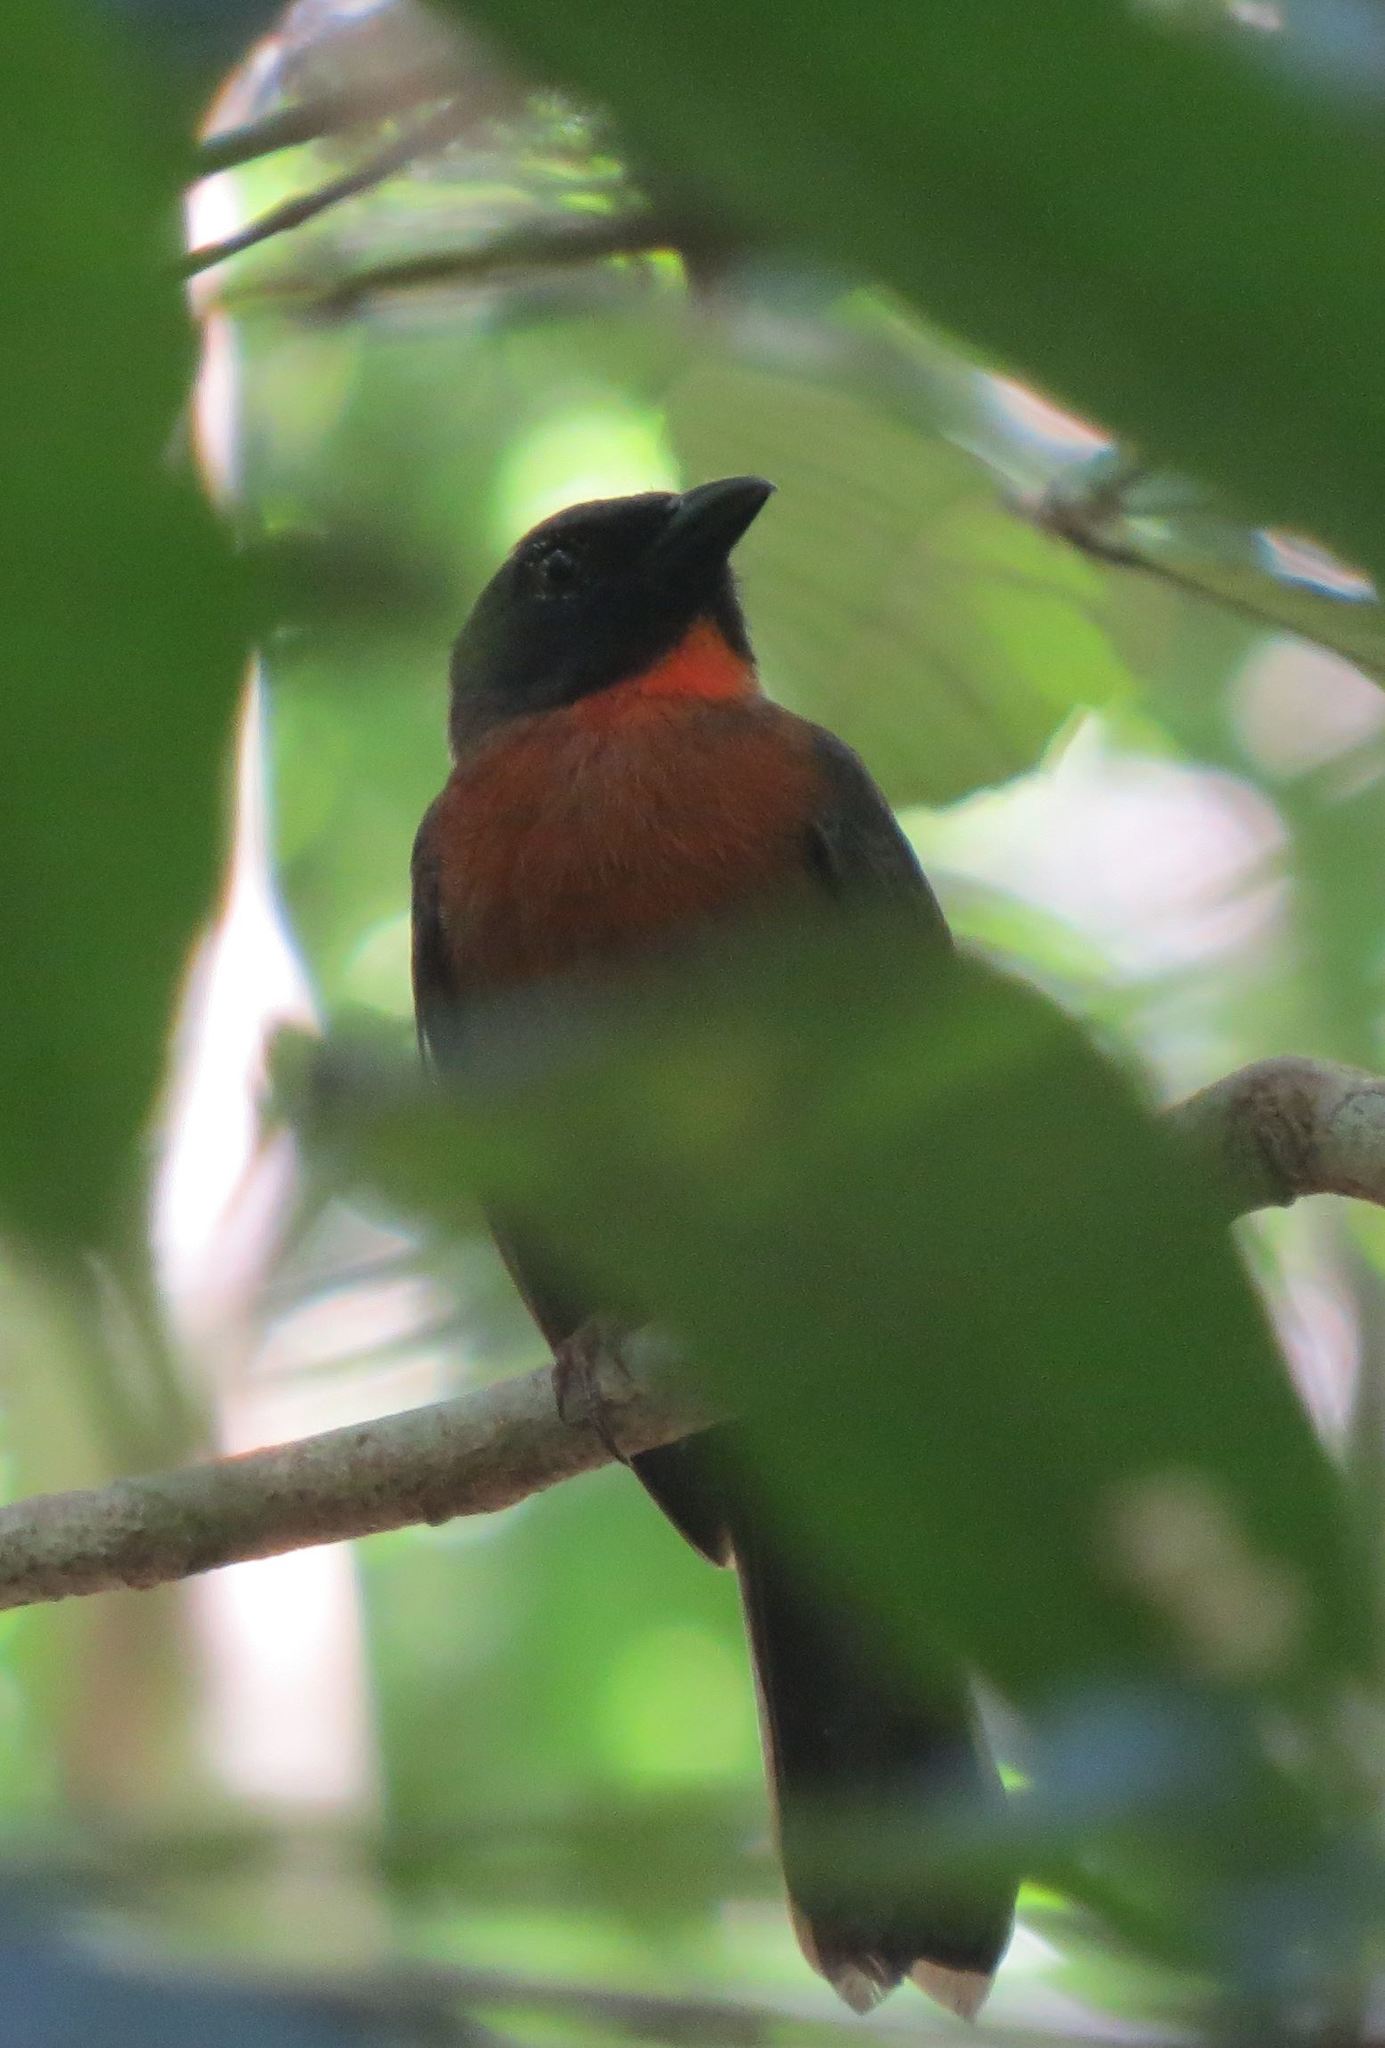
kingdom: Animalia
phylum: Chordata
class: Aves
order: Passeriformes
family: Cardinalidae
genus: Habia
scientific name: Habia atrimaxillaris
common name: Black-cheeked ant-tanager
